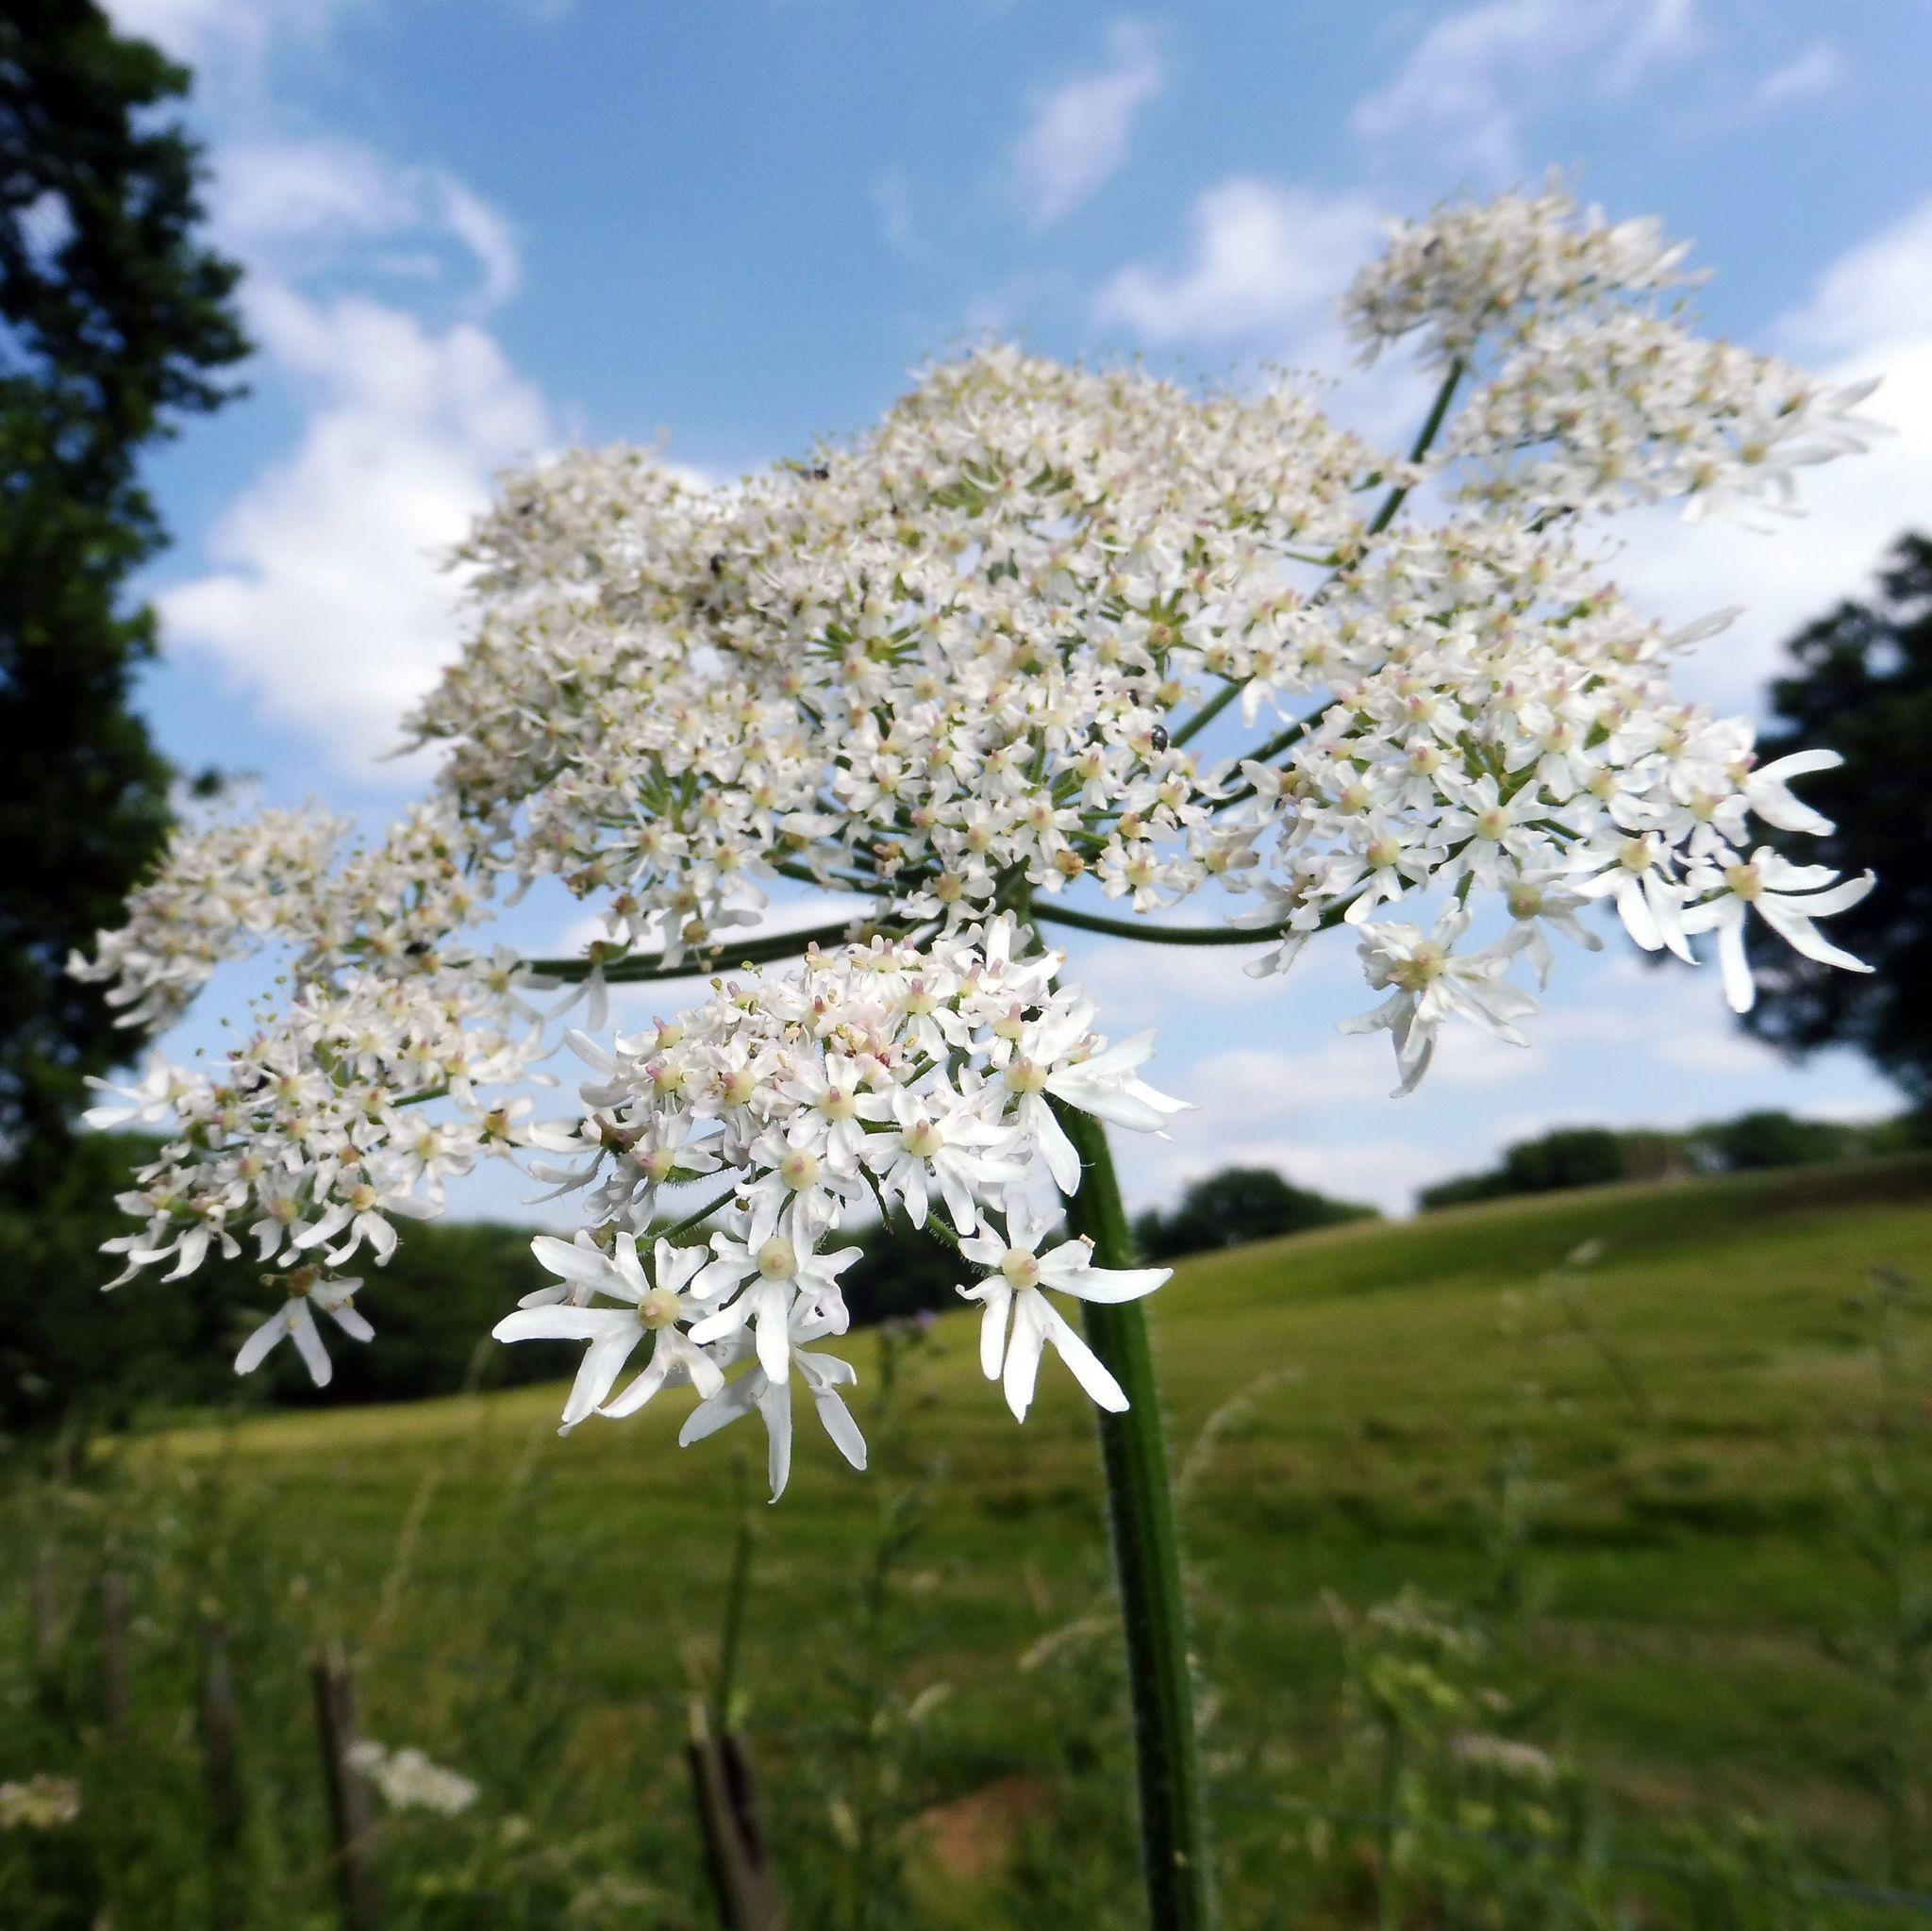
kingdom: Plantae
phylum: Tracheophyta
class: Magnoliopsida
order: Apiales
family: Apiaceae
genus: Heracleum
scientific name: Heracleum sphondylium
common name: Hogweed
